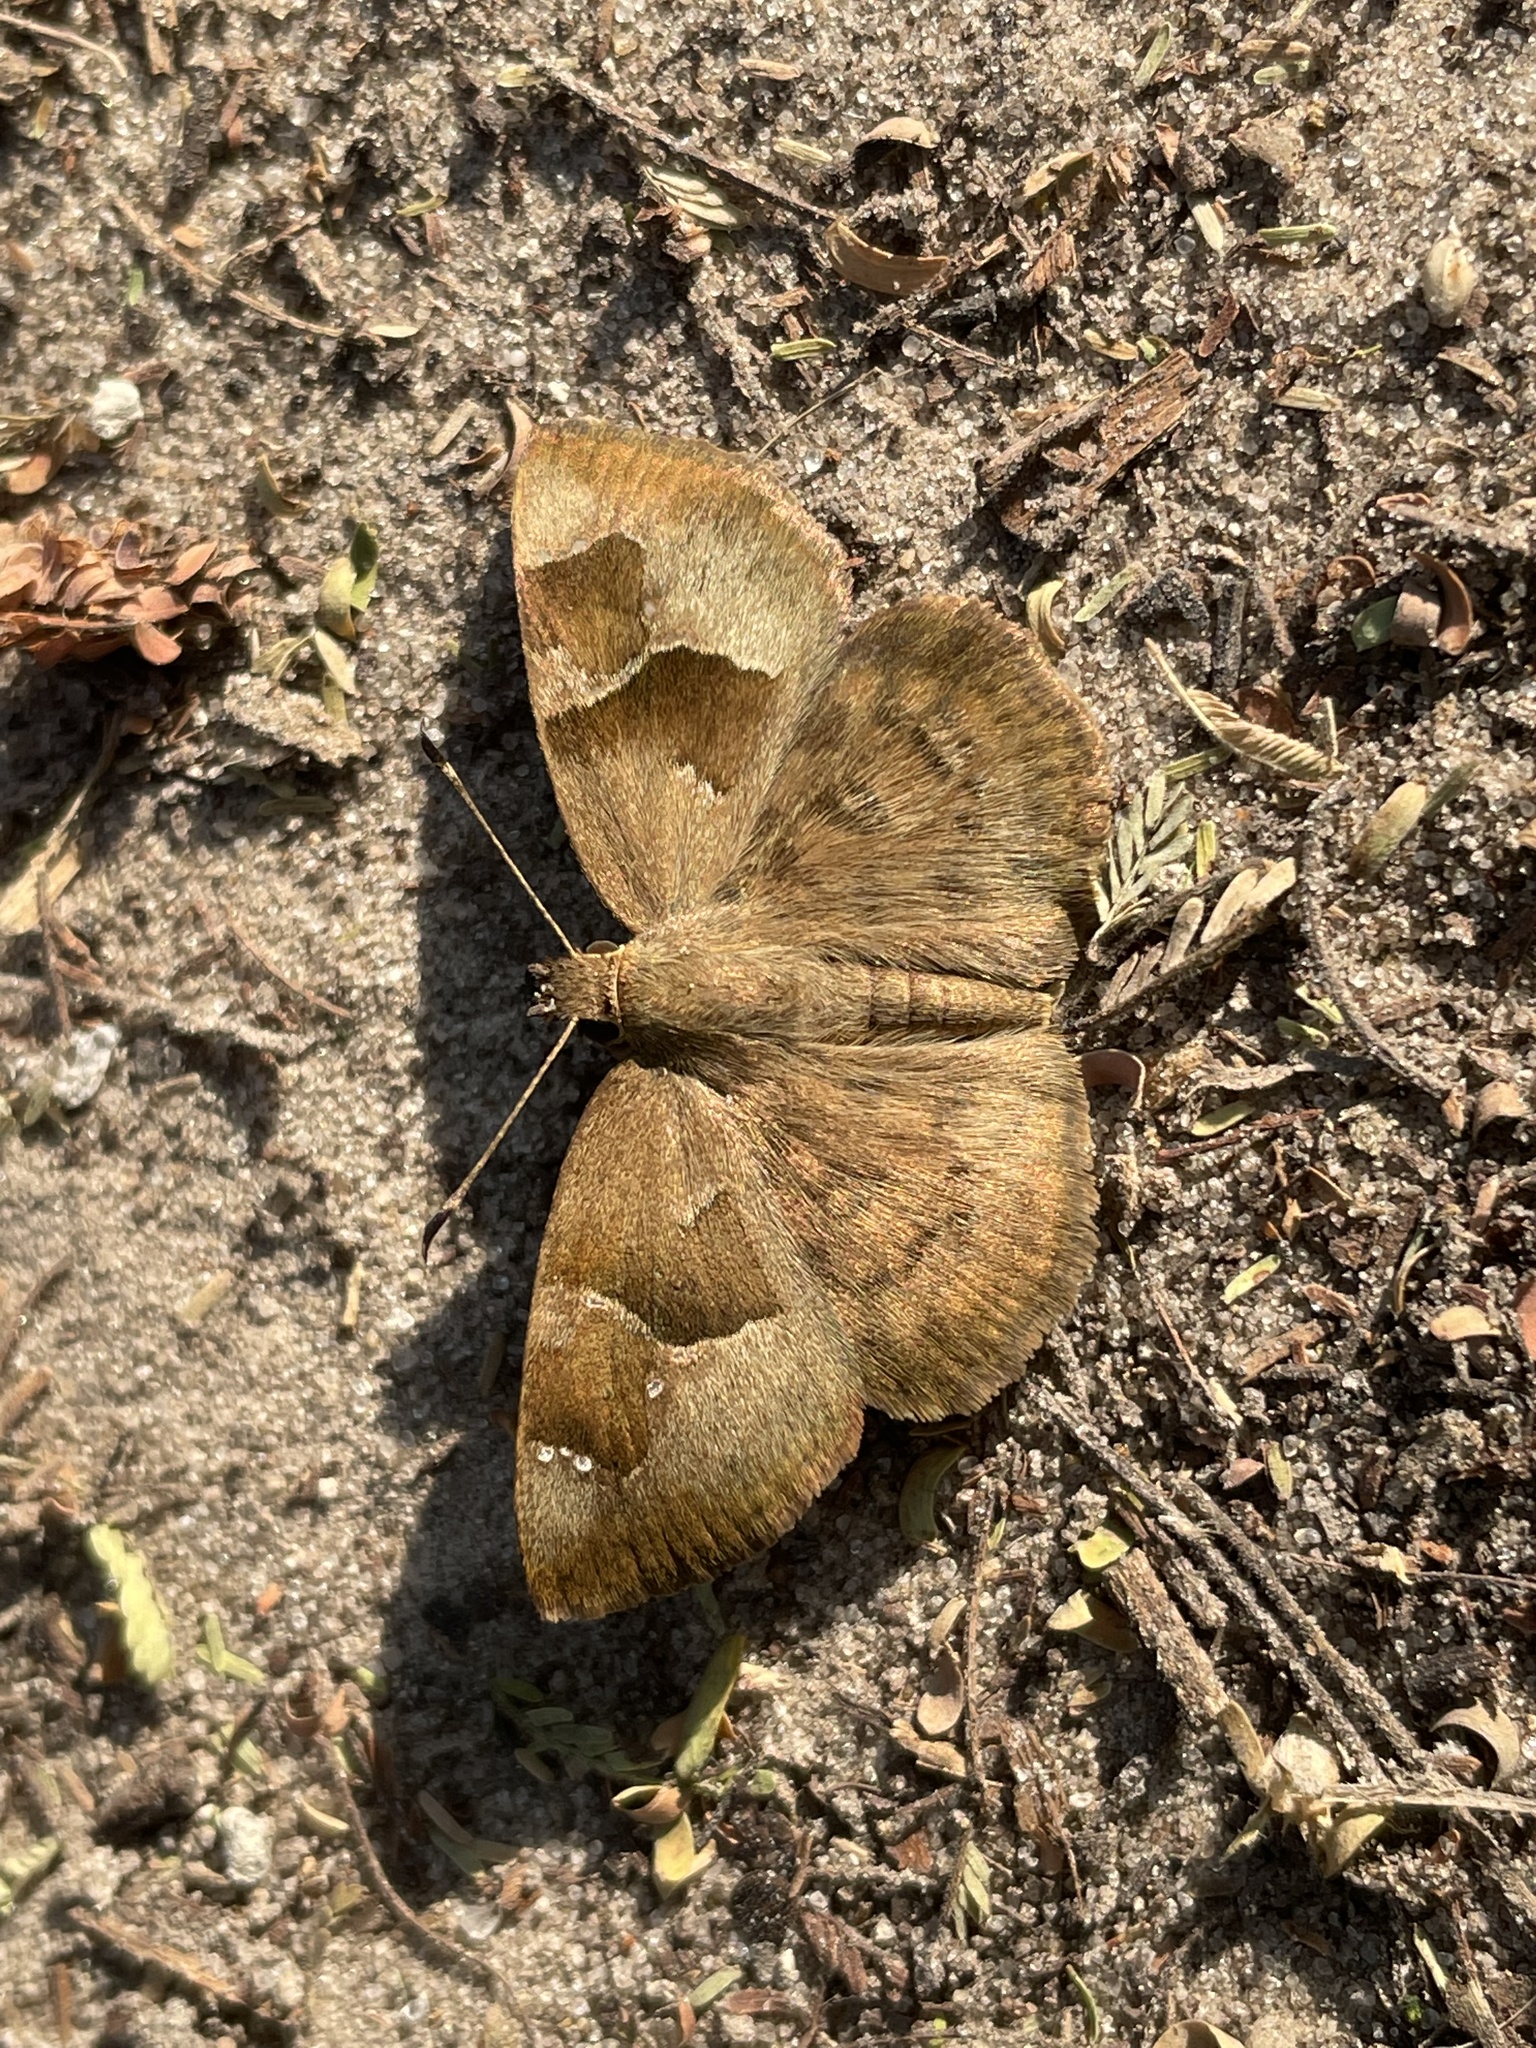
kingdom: Animalia
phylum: Arthropoda
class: Insecta
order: Lepidoptera
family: Hesperiidae
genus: Sarangesa
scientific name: Sarangesa phidyle
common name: Small elfin
